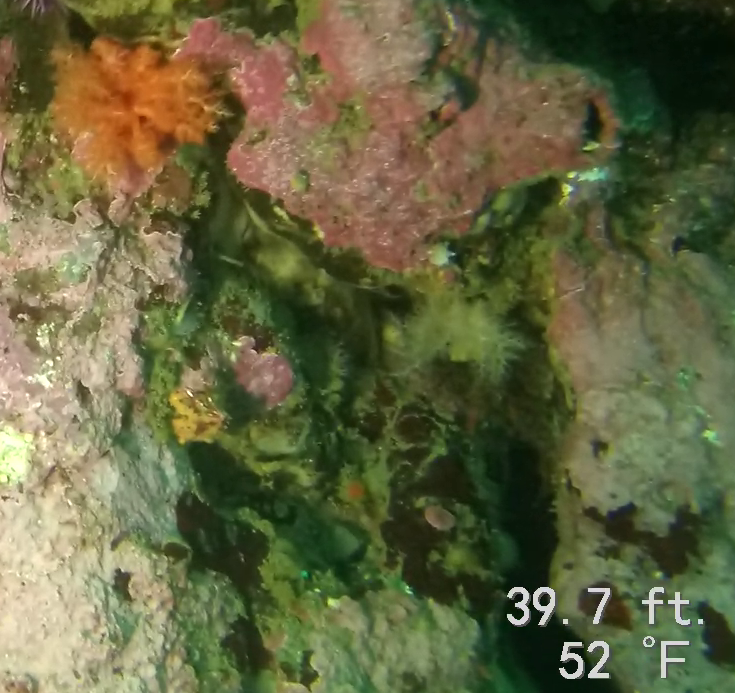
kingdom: Animalia
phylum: Echinodermata
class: Holothuroidea
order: Dendrochirotida
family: Cucumariidae
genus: Cucumaria
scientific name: Cucumaria miniata
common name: Orange sea cucumber
